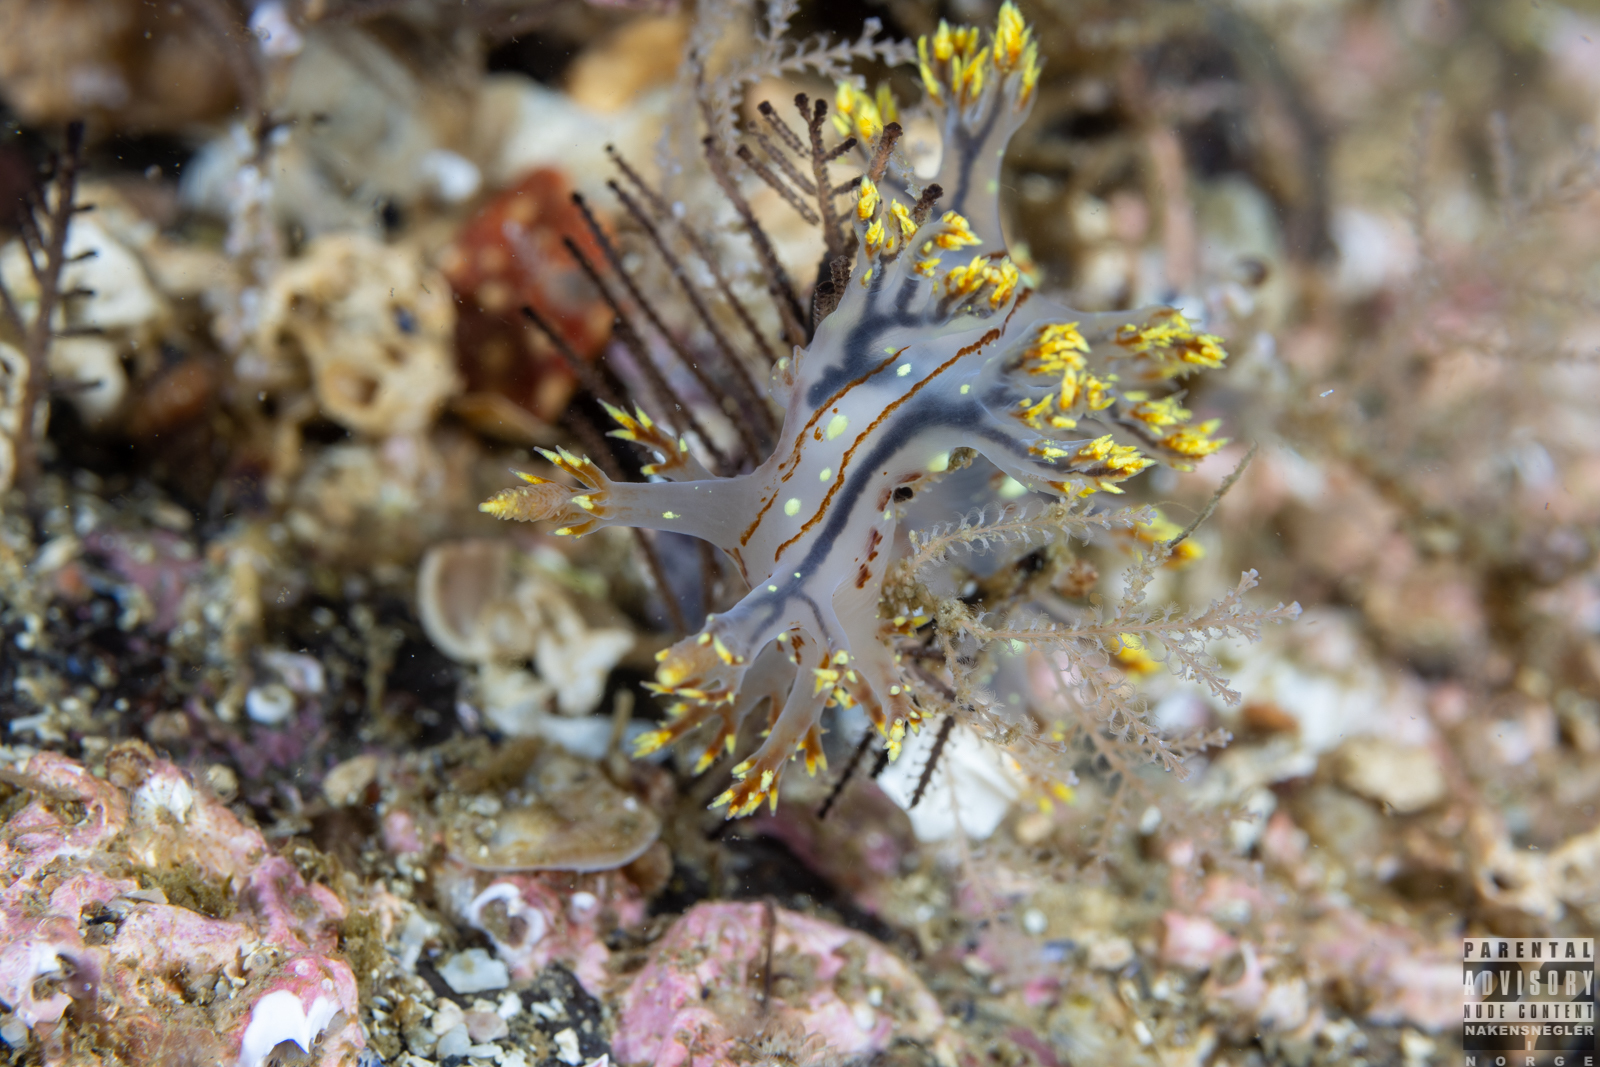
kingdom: Animalia
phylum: Mollusca
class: Gastropoda
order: Nudibranchia
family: Dendronotidae
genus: Dendronotus
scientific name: Dendronotus yrjargul
